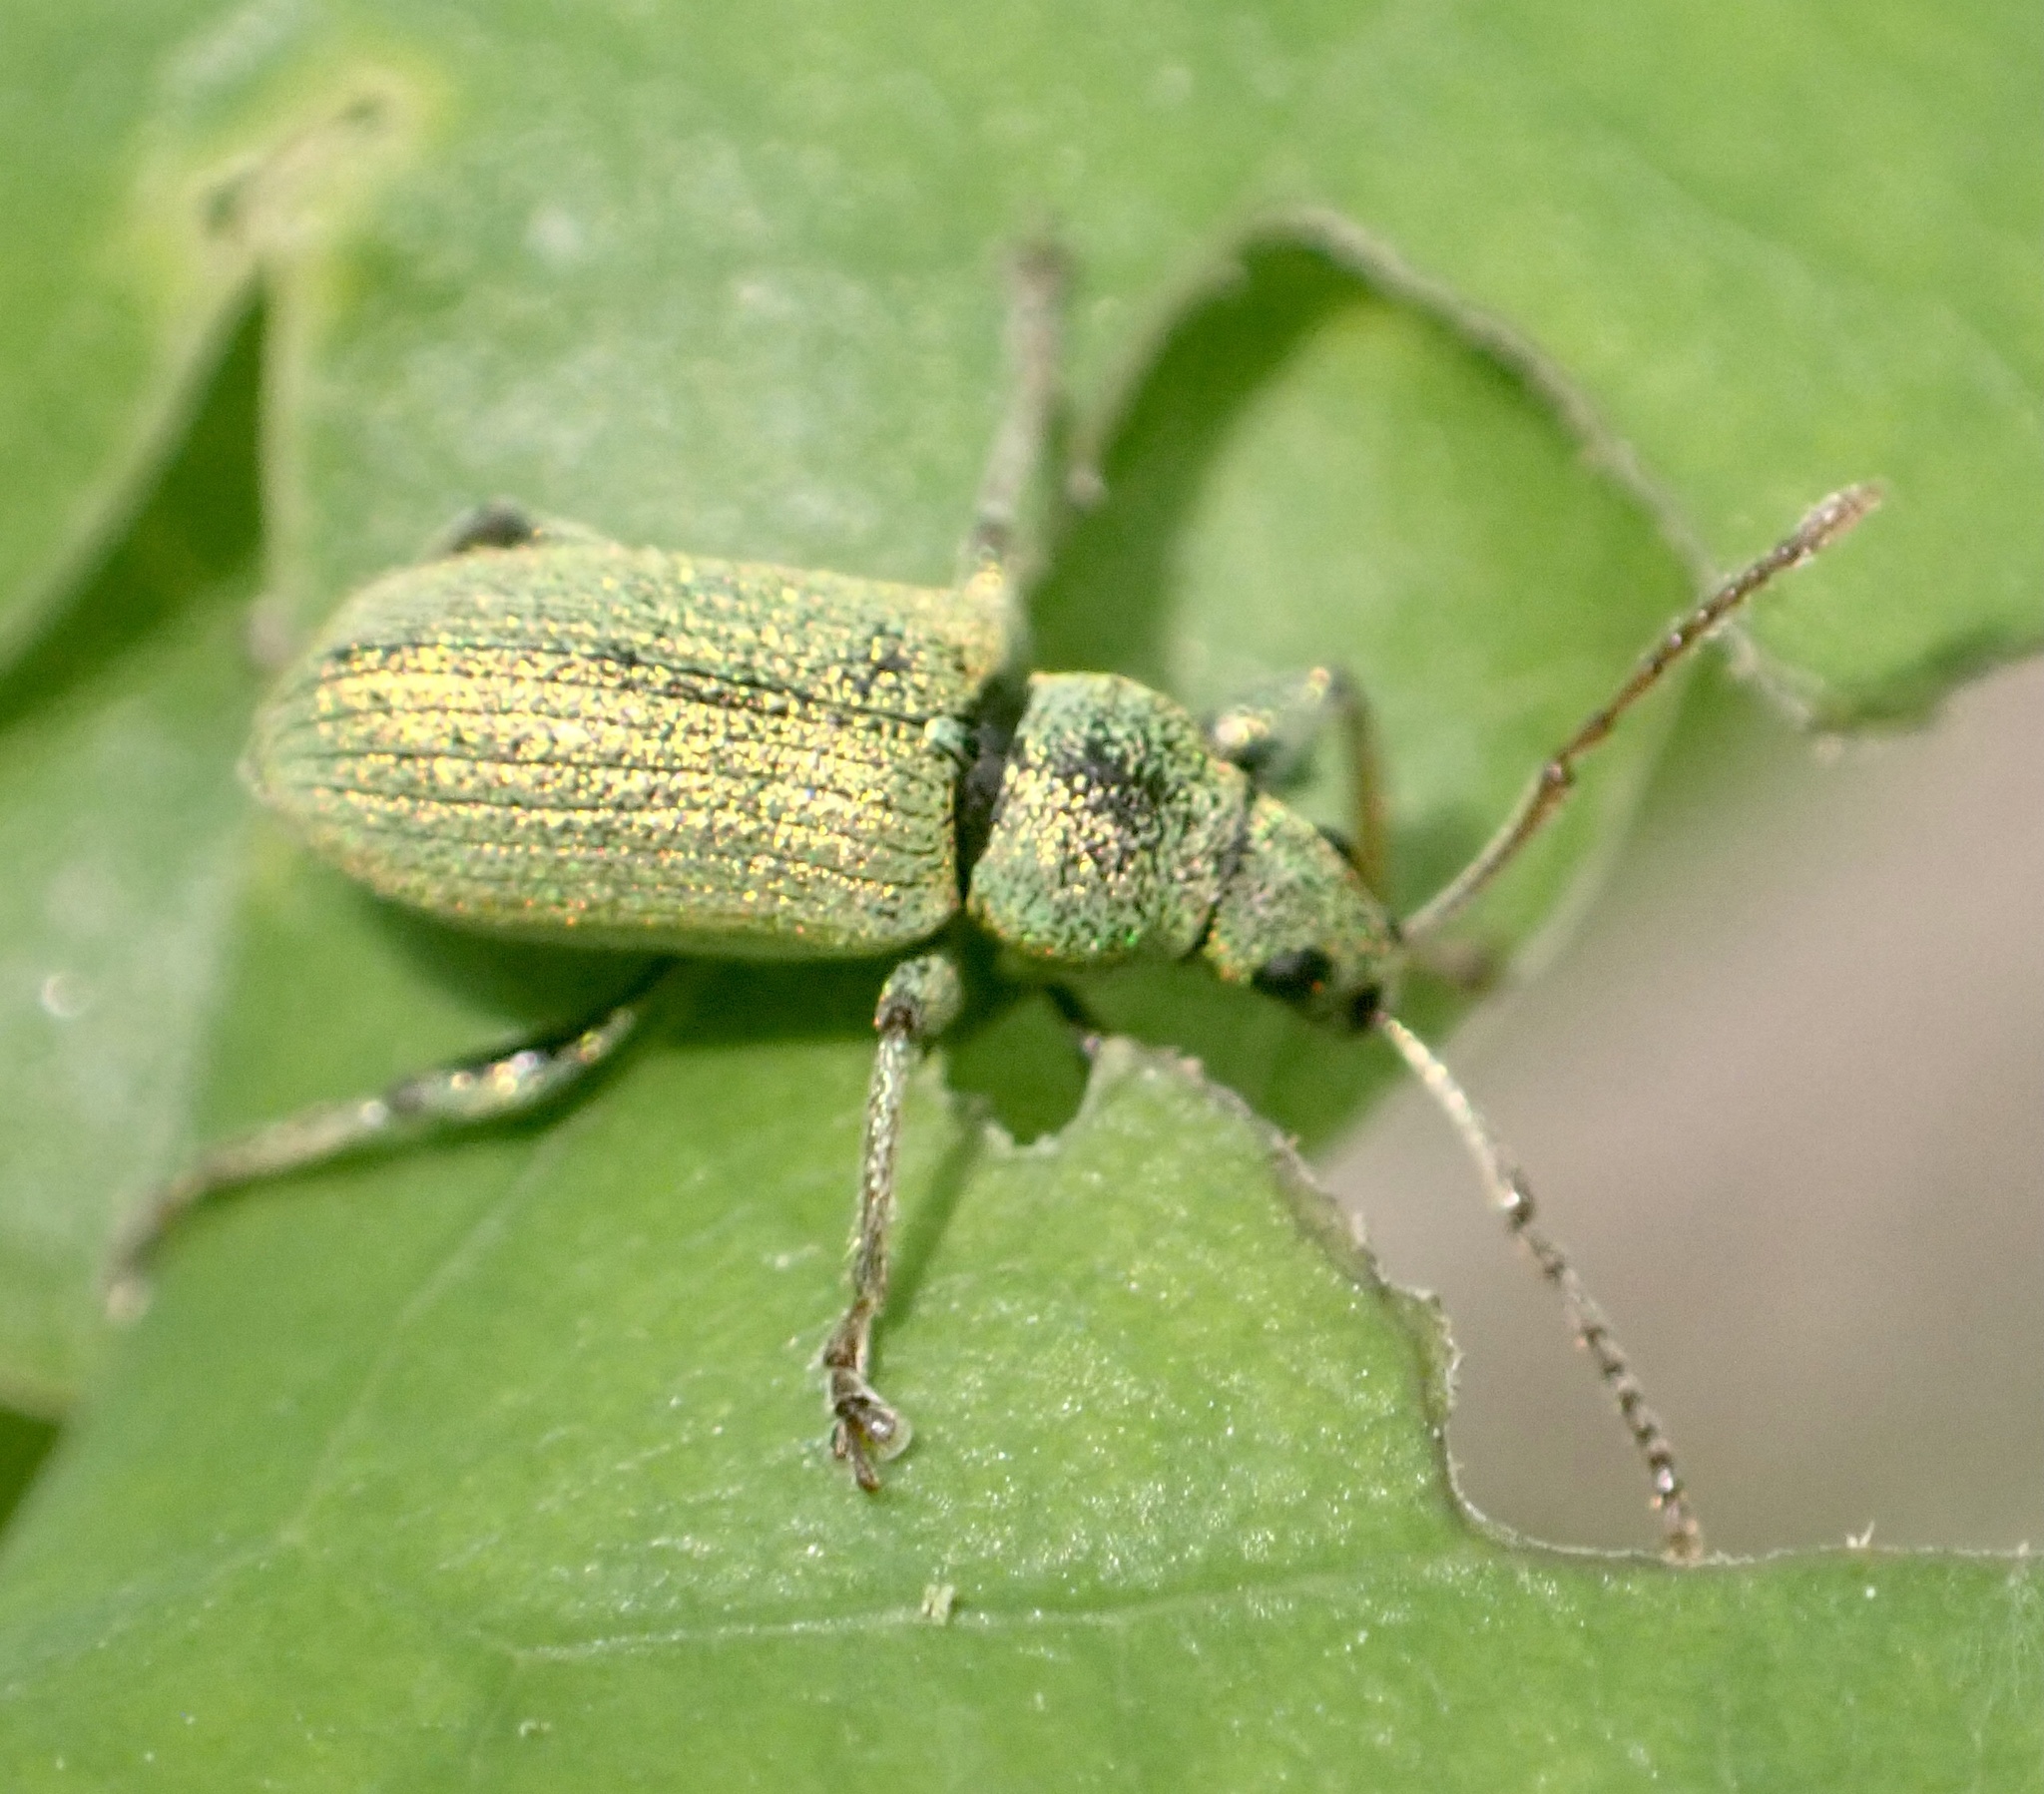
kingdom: Animalia
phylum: Arthropoda
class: Insecta
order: Coleoptera
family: Curculionidae
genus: Phyllobius
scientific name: Phyllobius argentatus
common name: Silver-green leaf weevil
